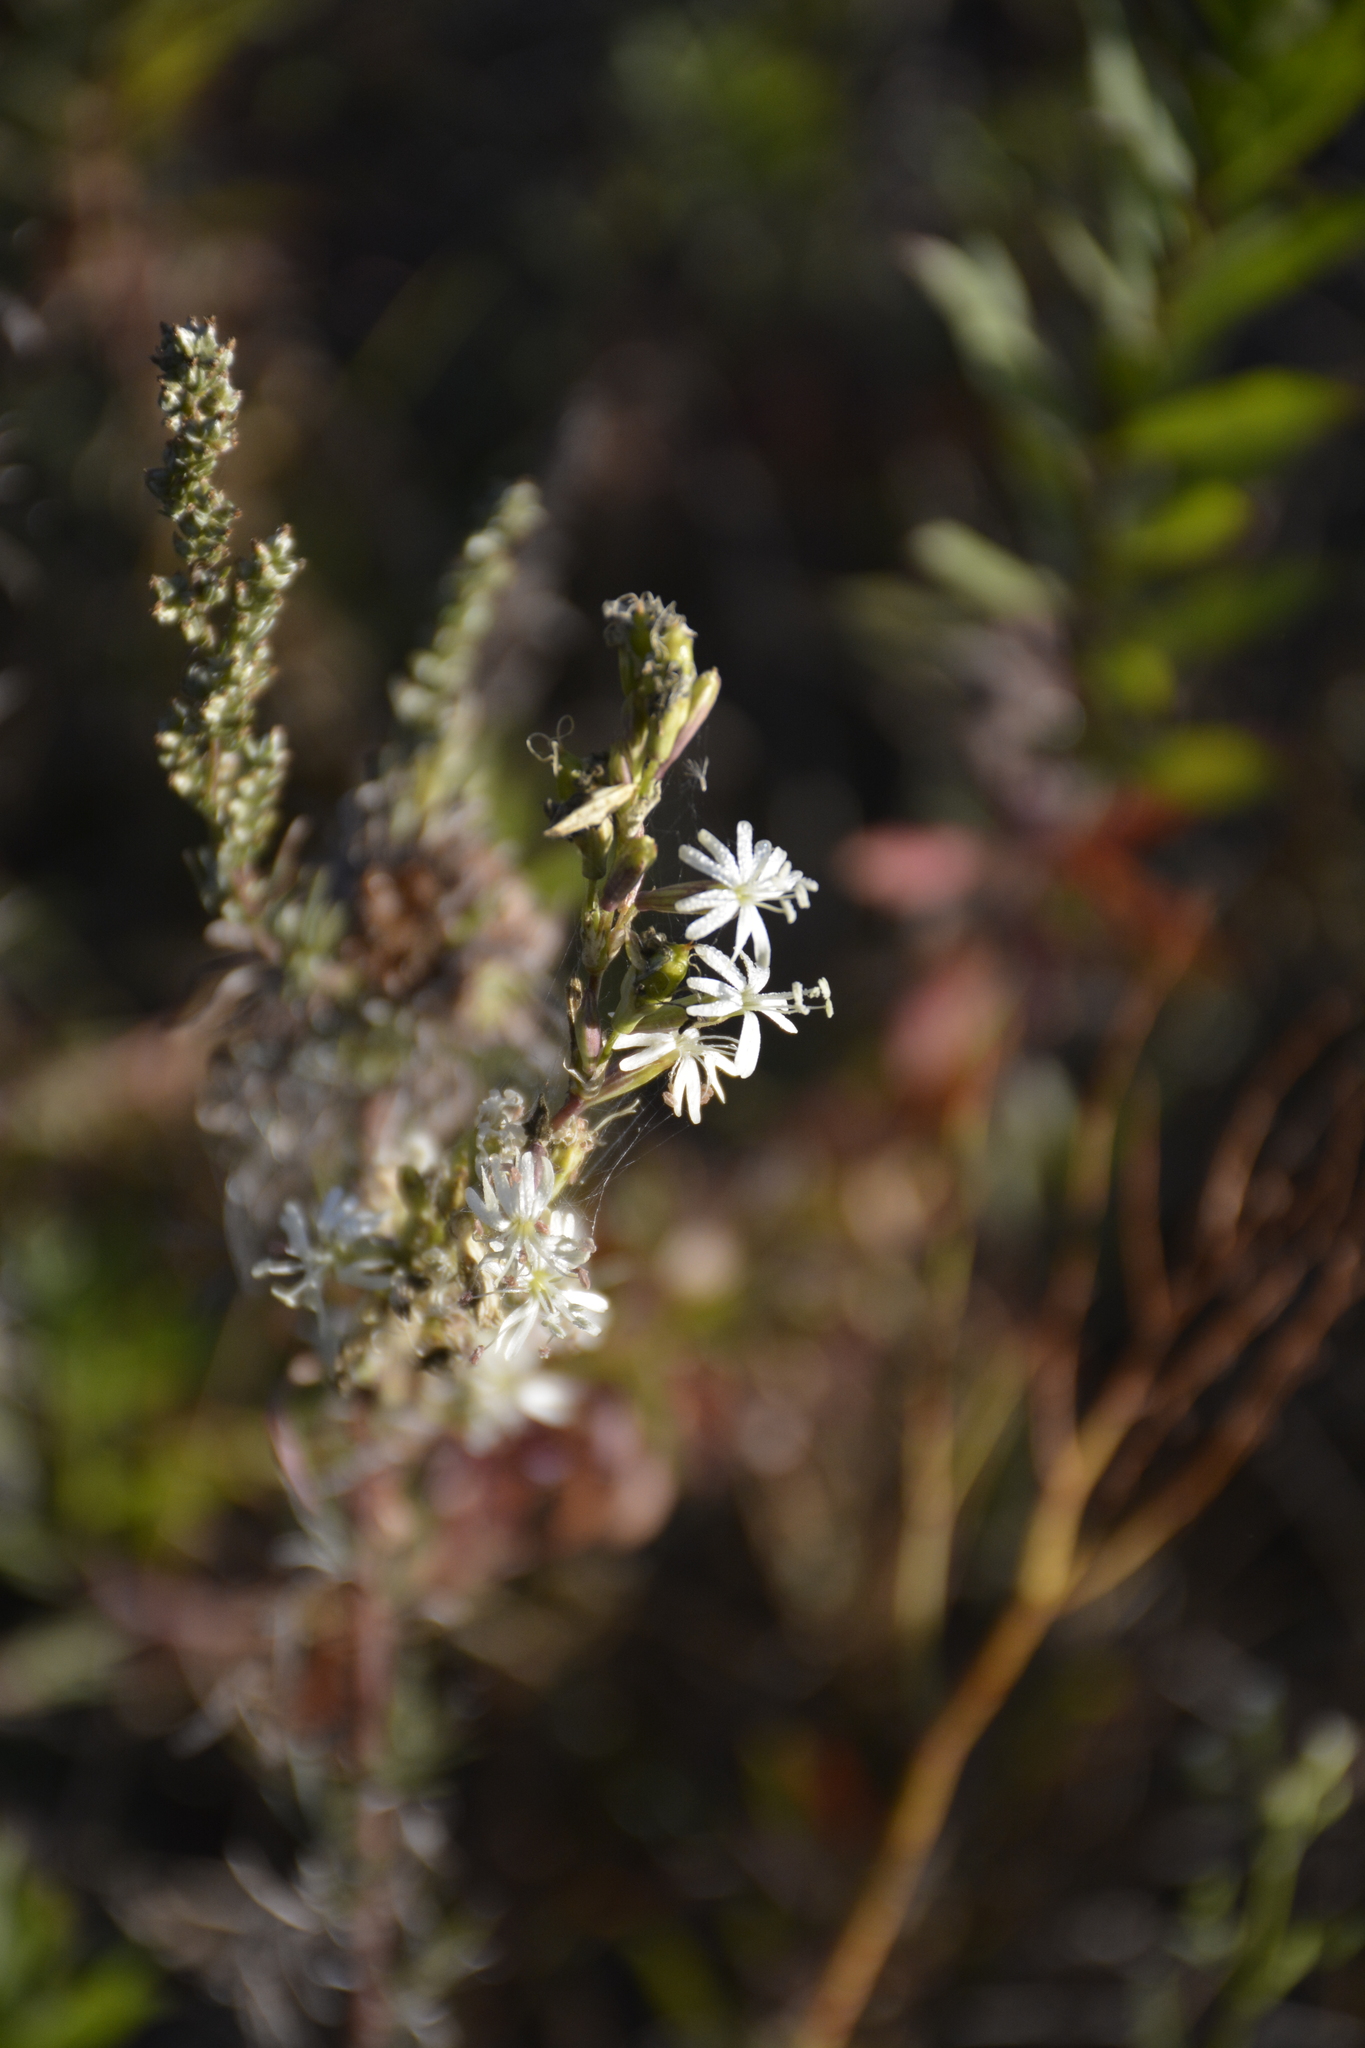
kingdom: Plantae
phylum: Tracheophyta
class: Magnoliopsida
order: Caryophyllales
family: Caryophyllaceae
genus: Silene
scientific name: Silene tatarica
